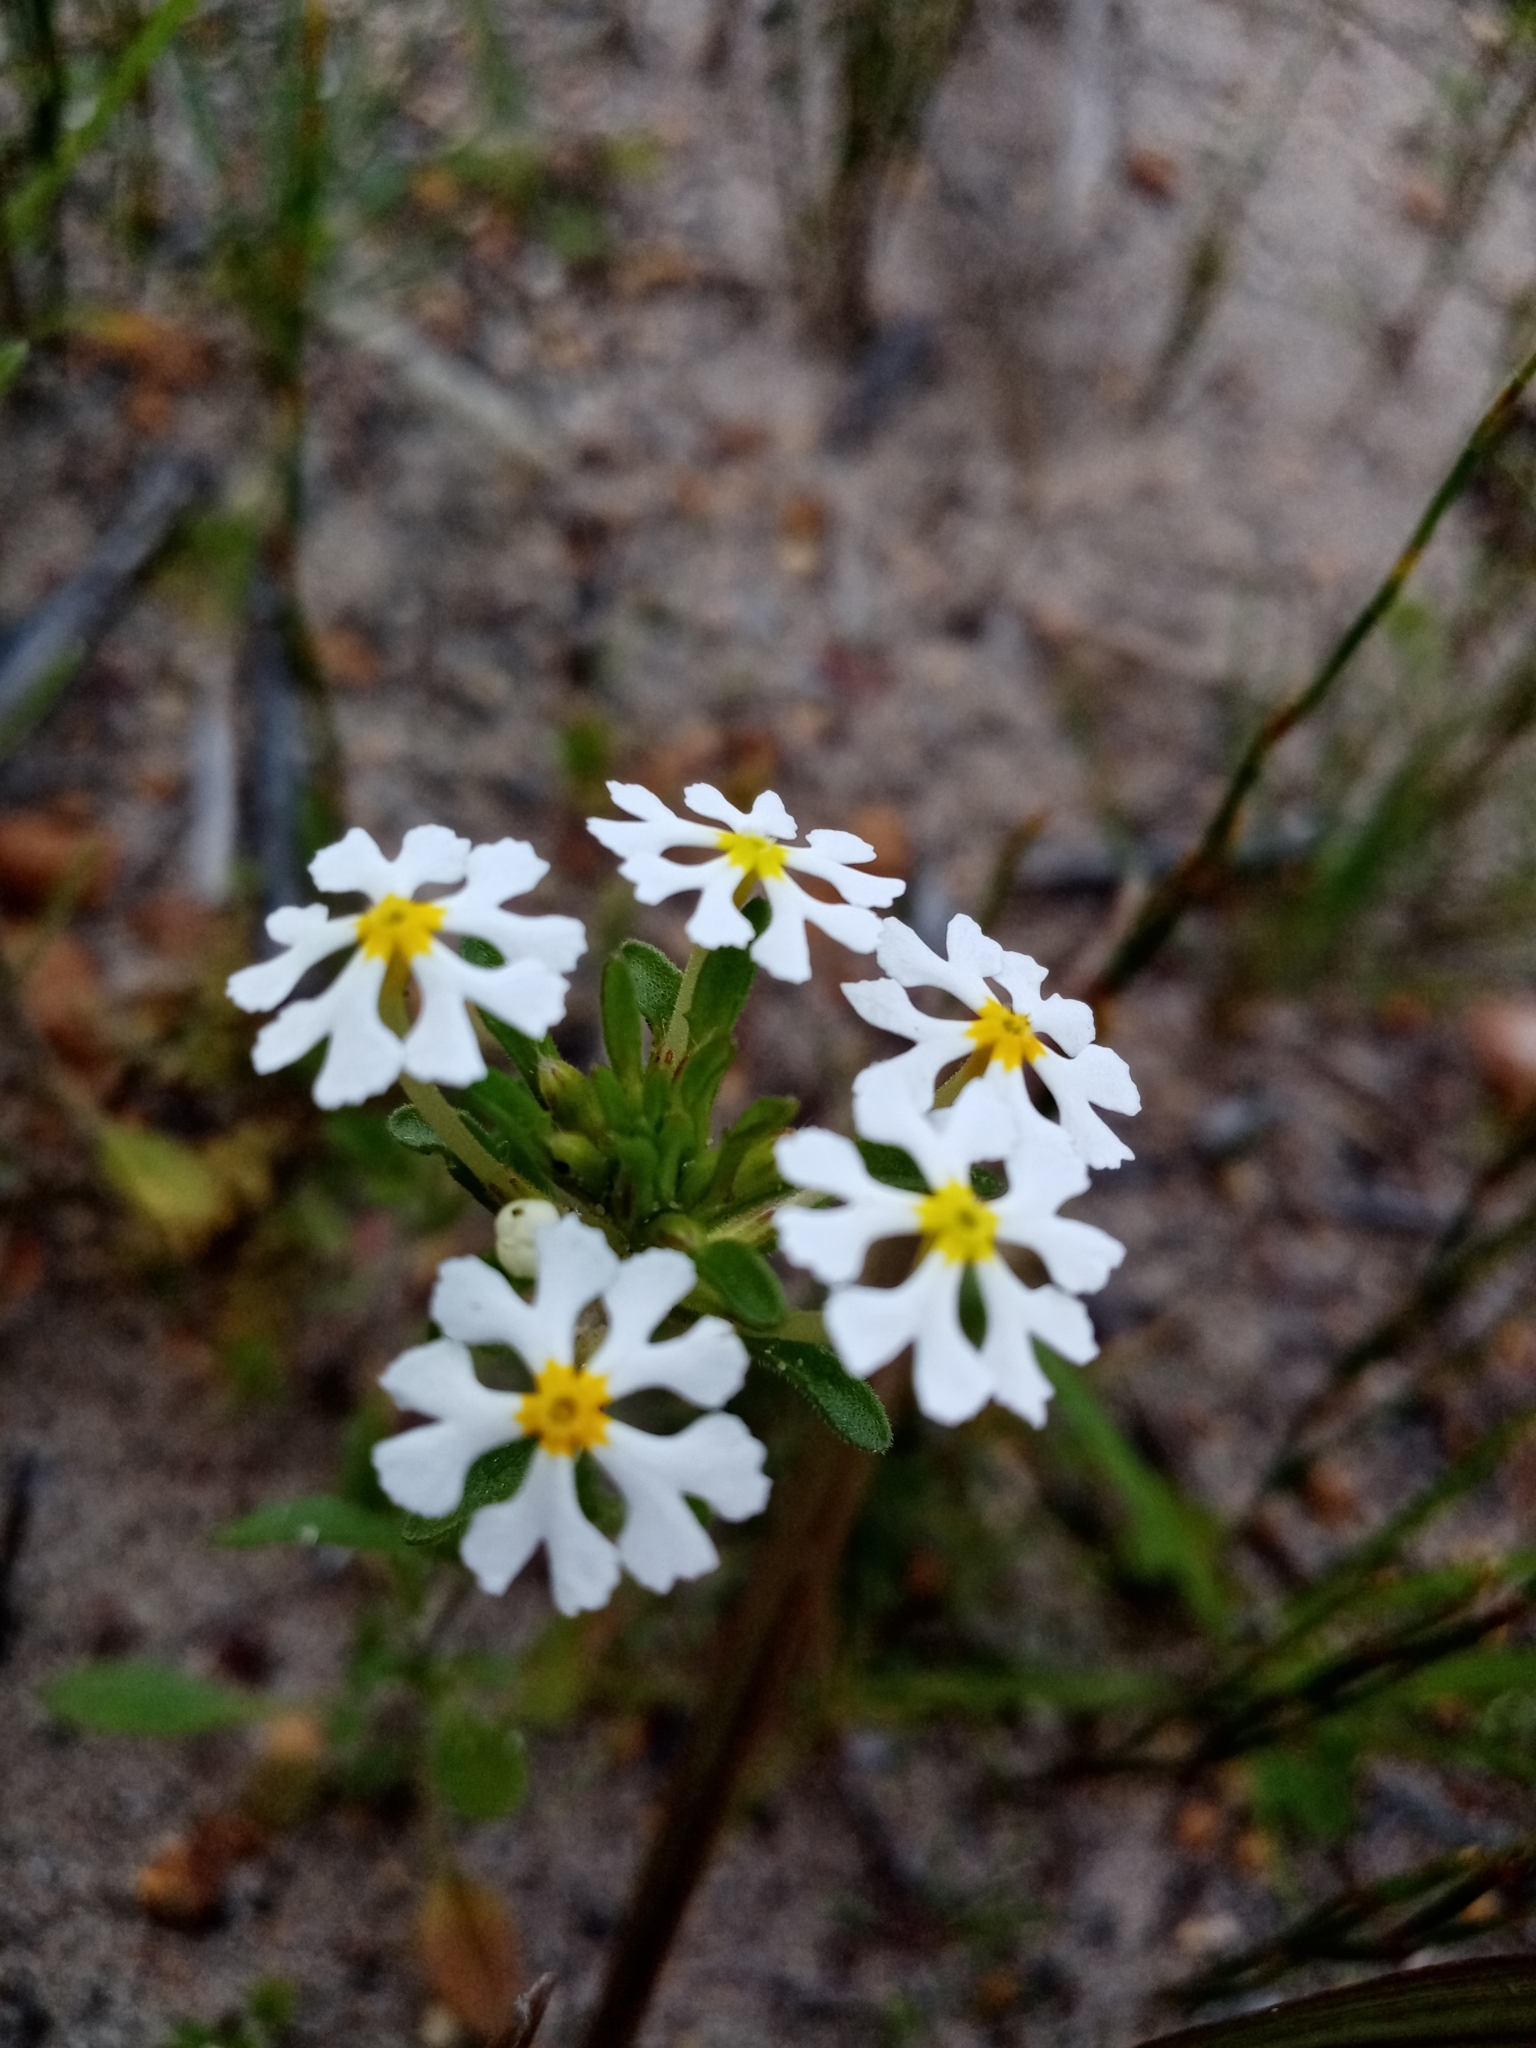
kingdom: Plantae
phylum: Tracheophyta
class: Magnoliopsida
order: Lamiales
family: Scrophulariaceae
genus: Zaluzianskya
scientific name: Zaluzianskya villosa
